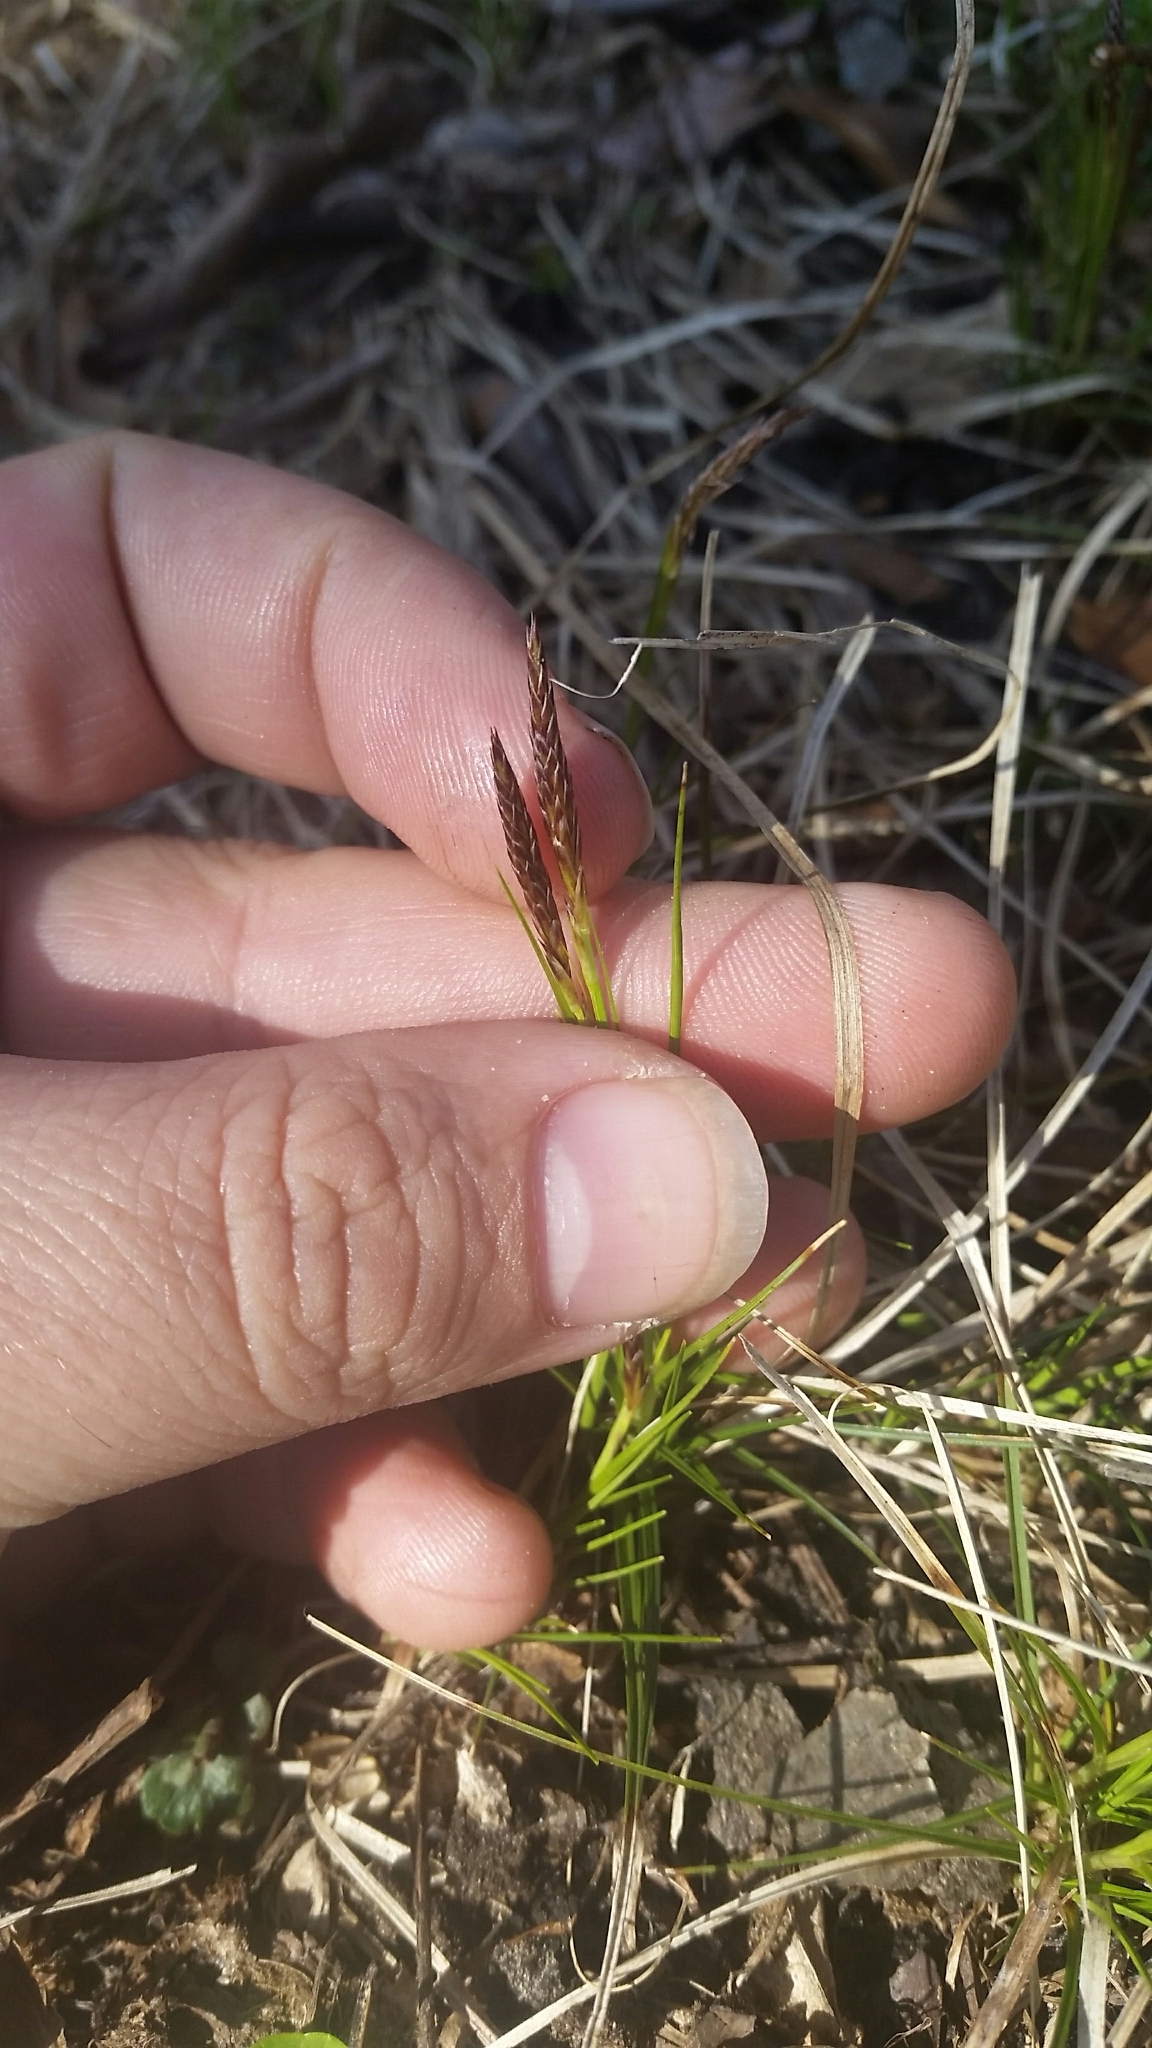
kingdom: Plantae
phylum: Tracheophyta
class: Liliopsida
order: Poales
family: Cyperaceae
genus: Carex
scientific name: Carex pensylvanica
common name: Common oak sedge
